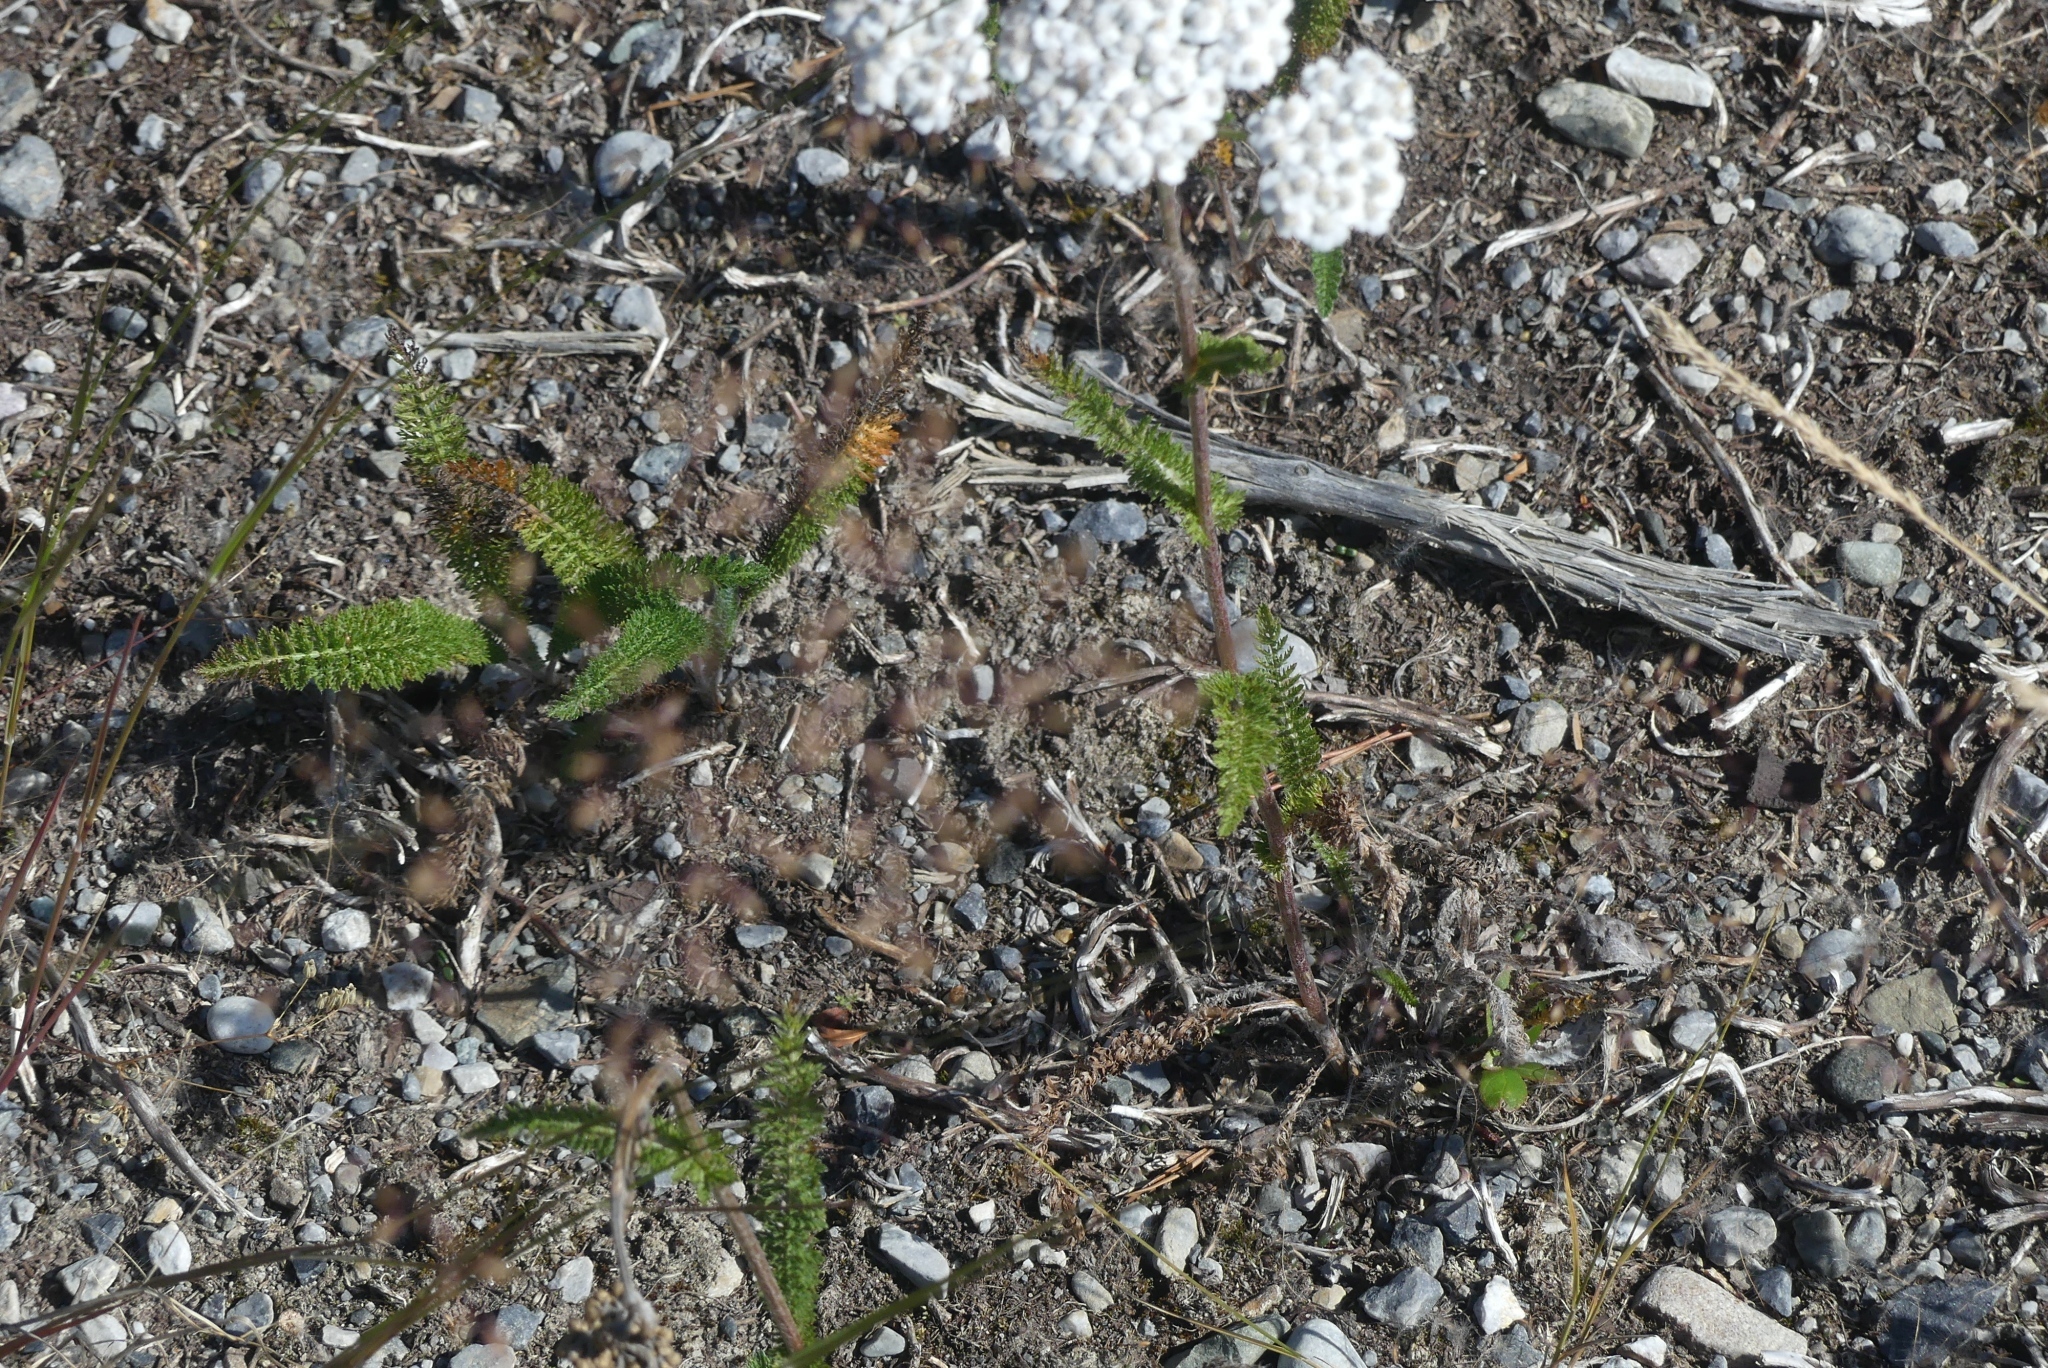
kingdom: Plantae
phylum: Tracheophyta
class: Magnoliopsida
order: Asterales
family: Asteraceae
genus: Achillea
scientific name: Achillea millefolium
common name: Yarrow
